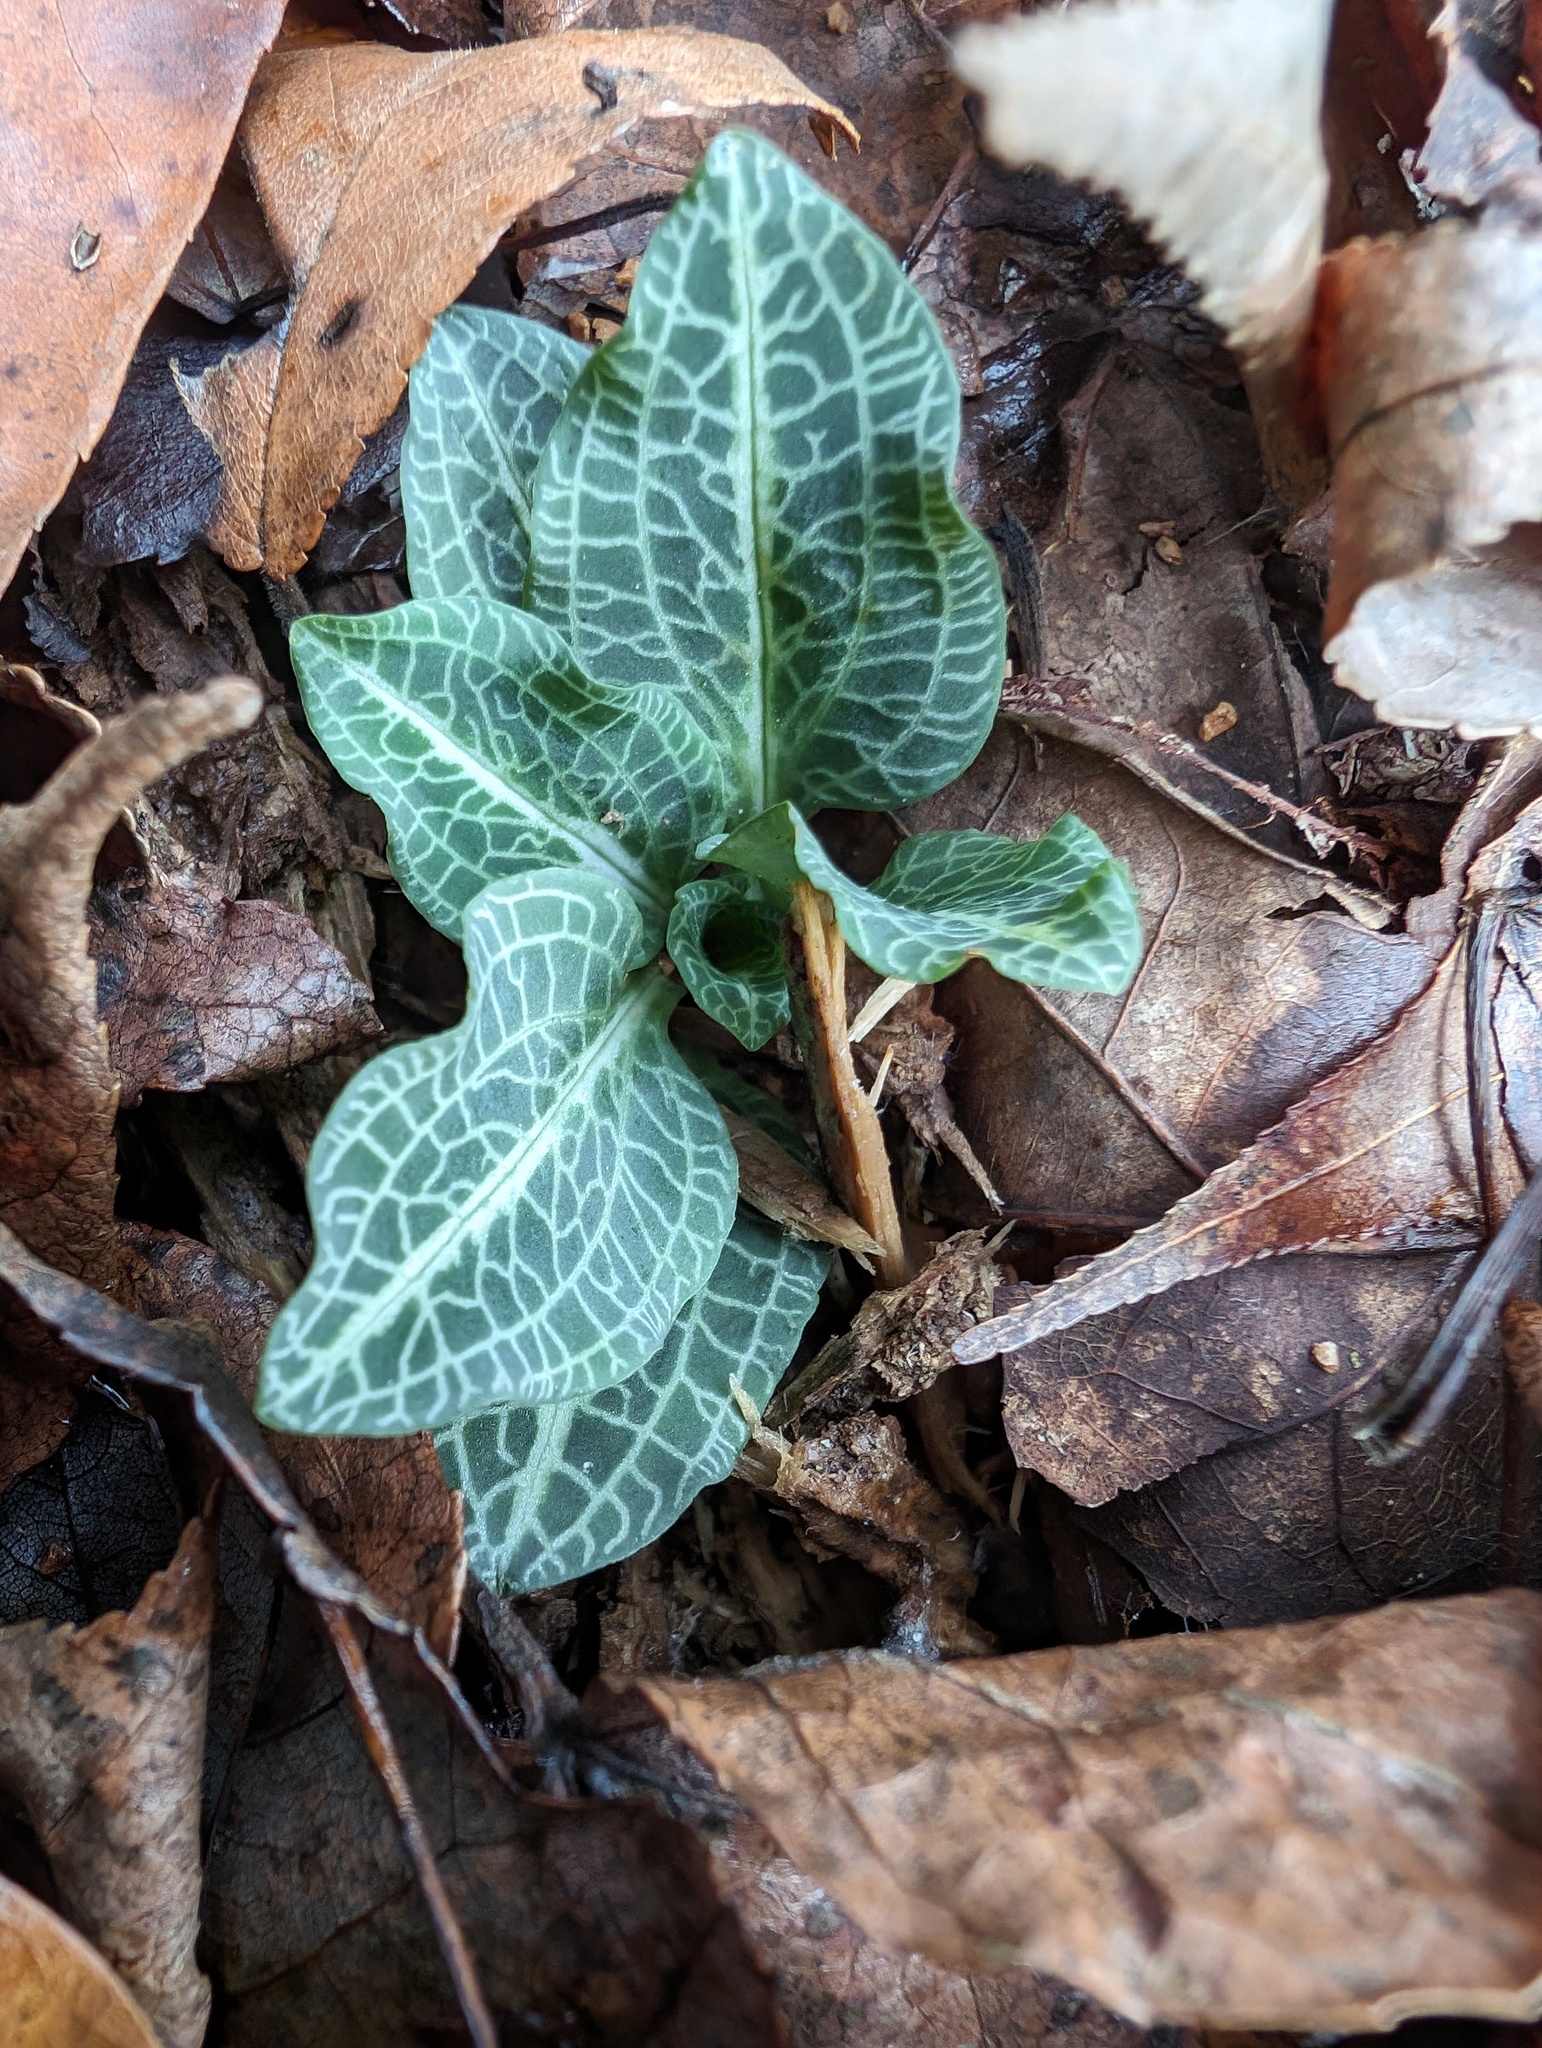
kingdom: Plantae
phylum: Tracheophyta
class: Liliopsida
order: Asparagales
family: Orchidaceae
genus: Goodyera
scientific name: Goodyera pubescens
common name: Downy rattlesnake-plantain
